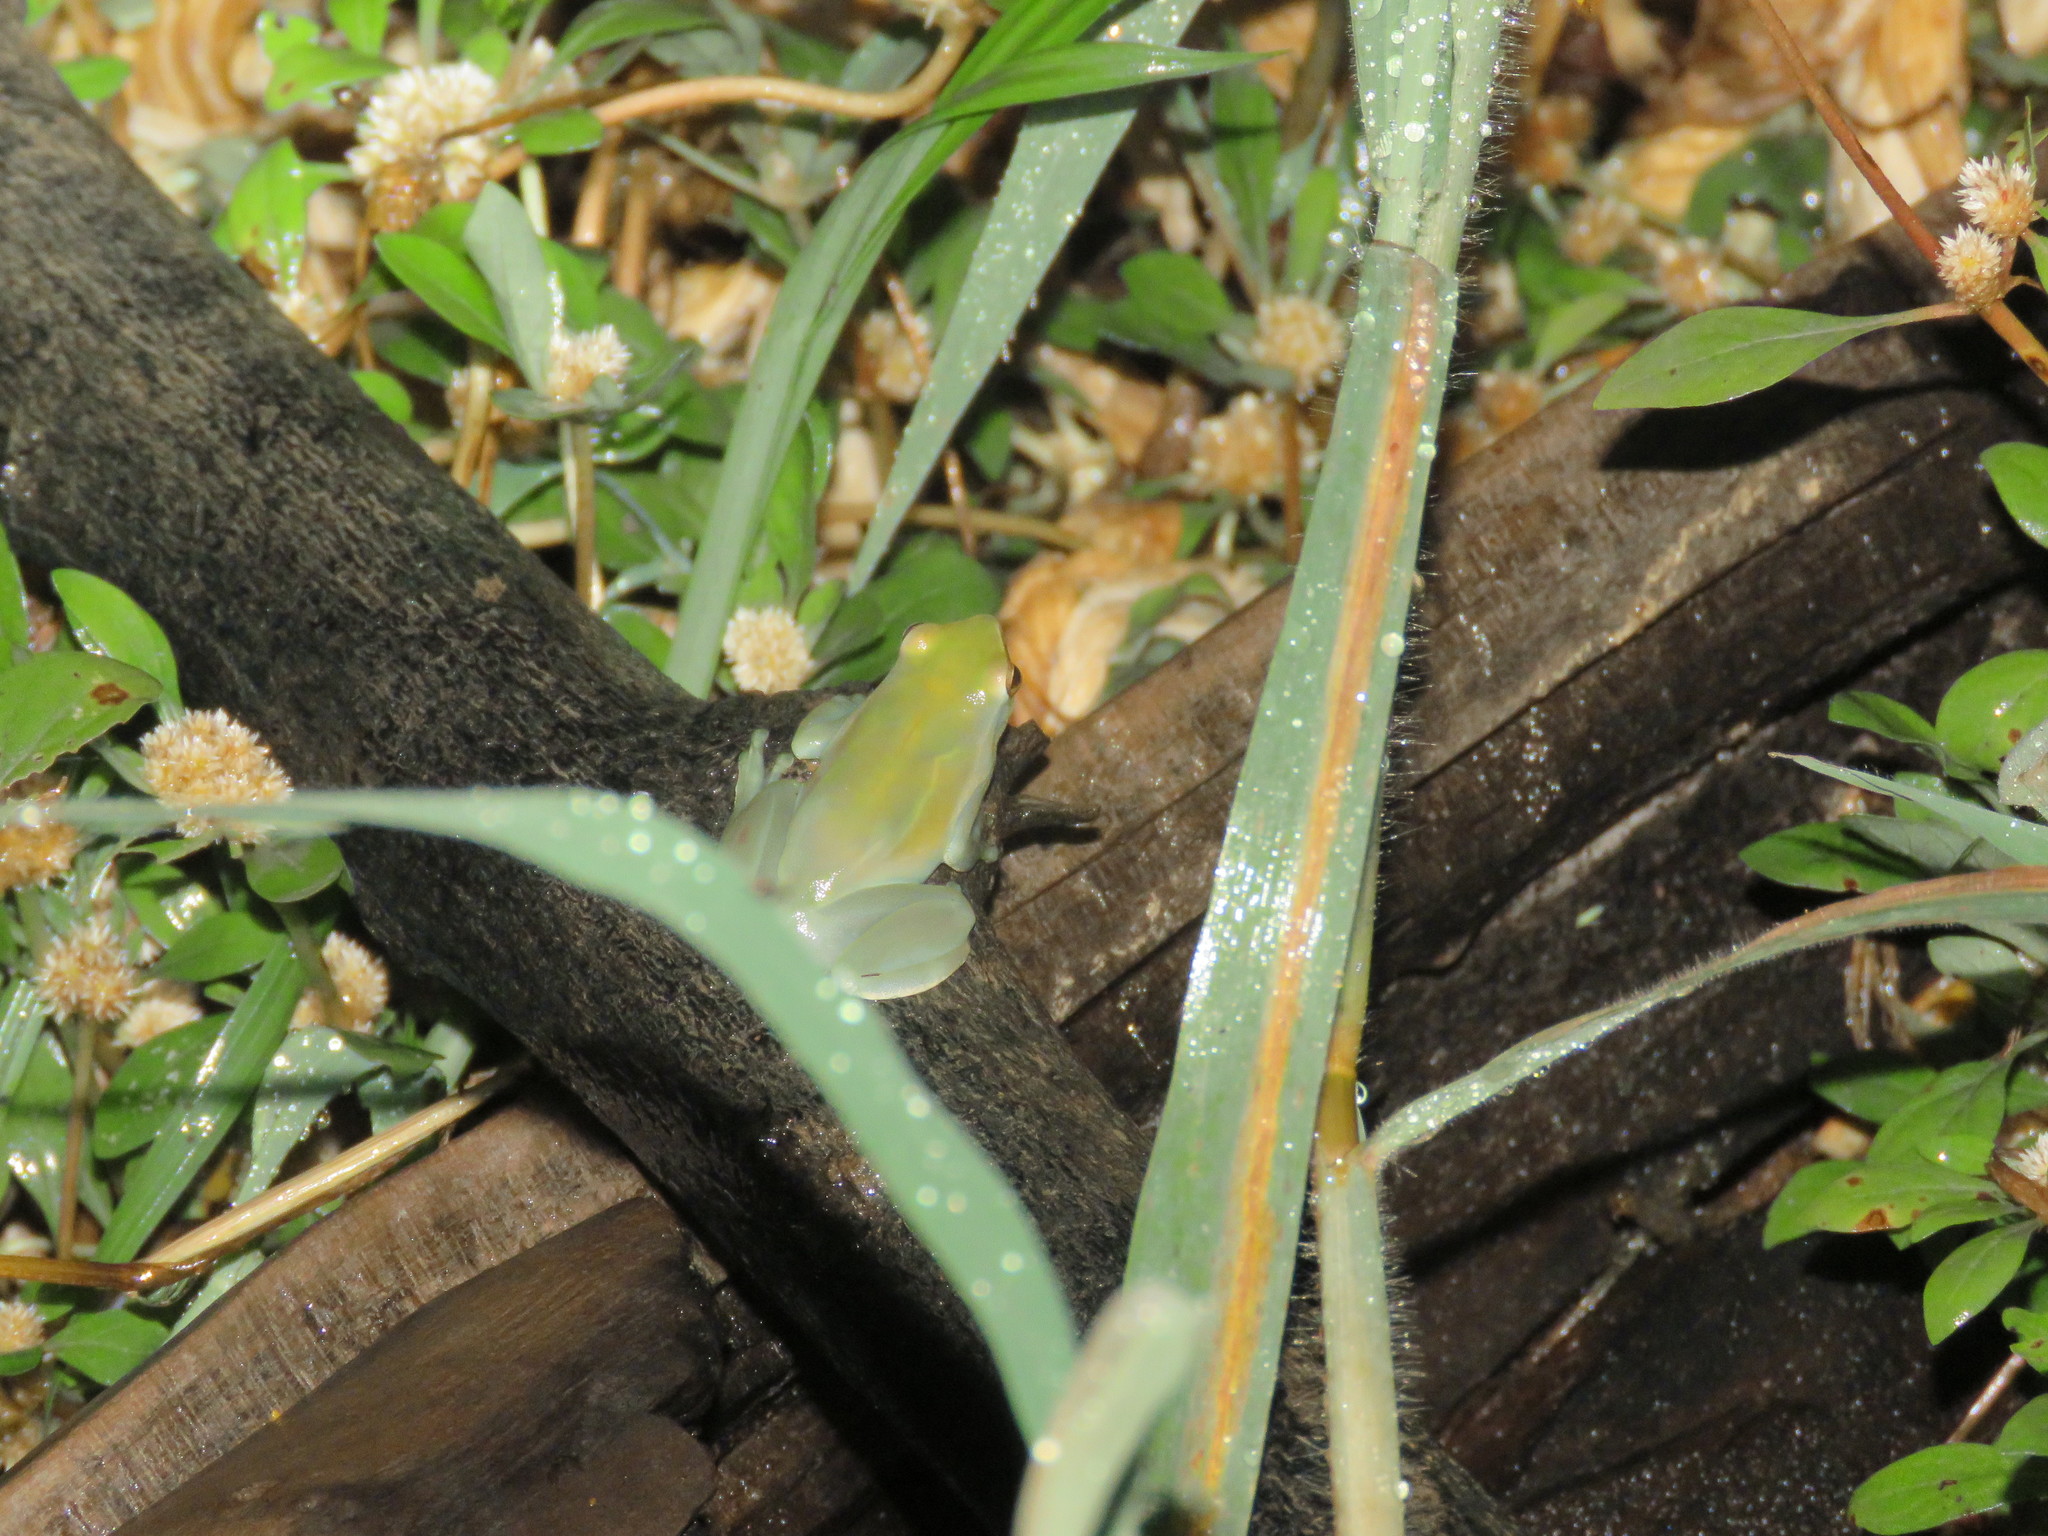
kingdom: Animalia
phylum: Chordata
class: Amphibia
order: Anura
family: Hylidae
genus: Sphaenorhynchus
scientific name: Sphaenorhynchus lacteus
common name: Orinoco lime treefrog
